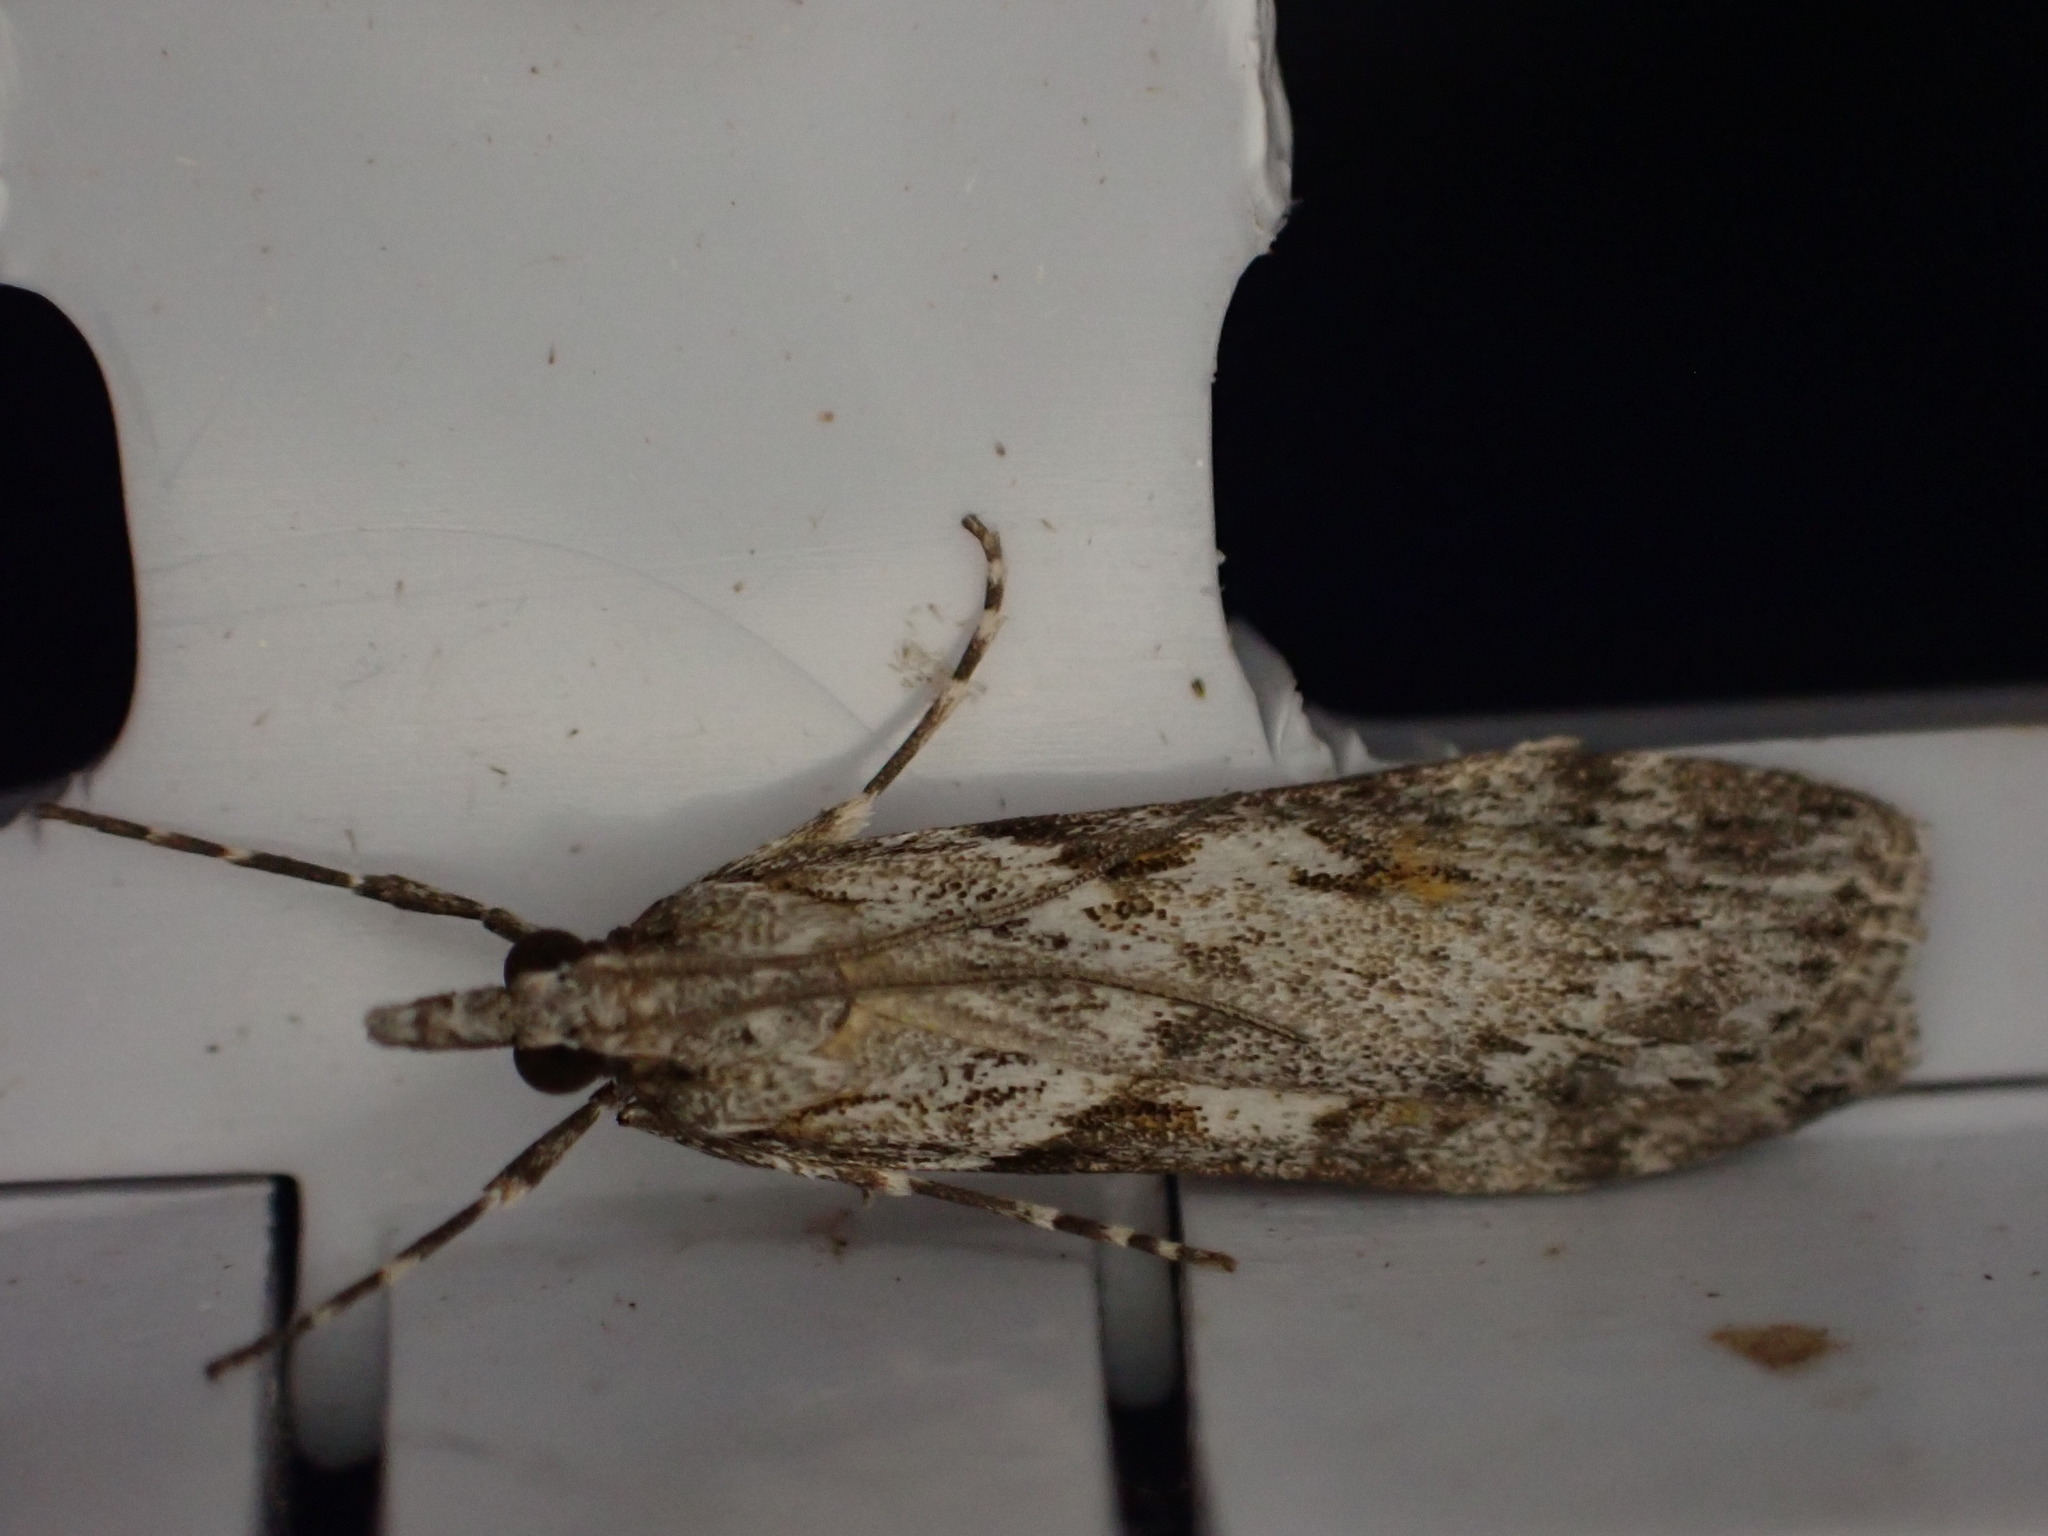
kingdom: Animalia
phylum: Arthropoda
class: Insecta
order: Lepidoptera
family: Crambidae
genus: Scoparia
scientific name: Scoparia halopis
